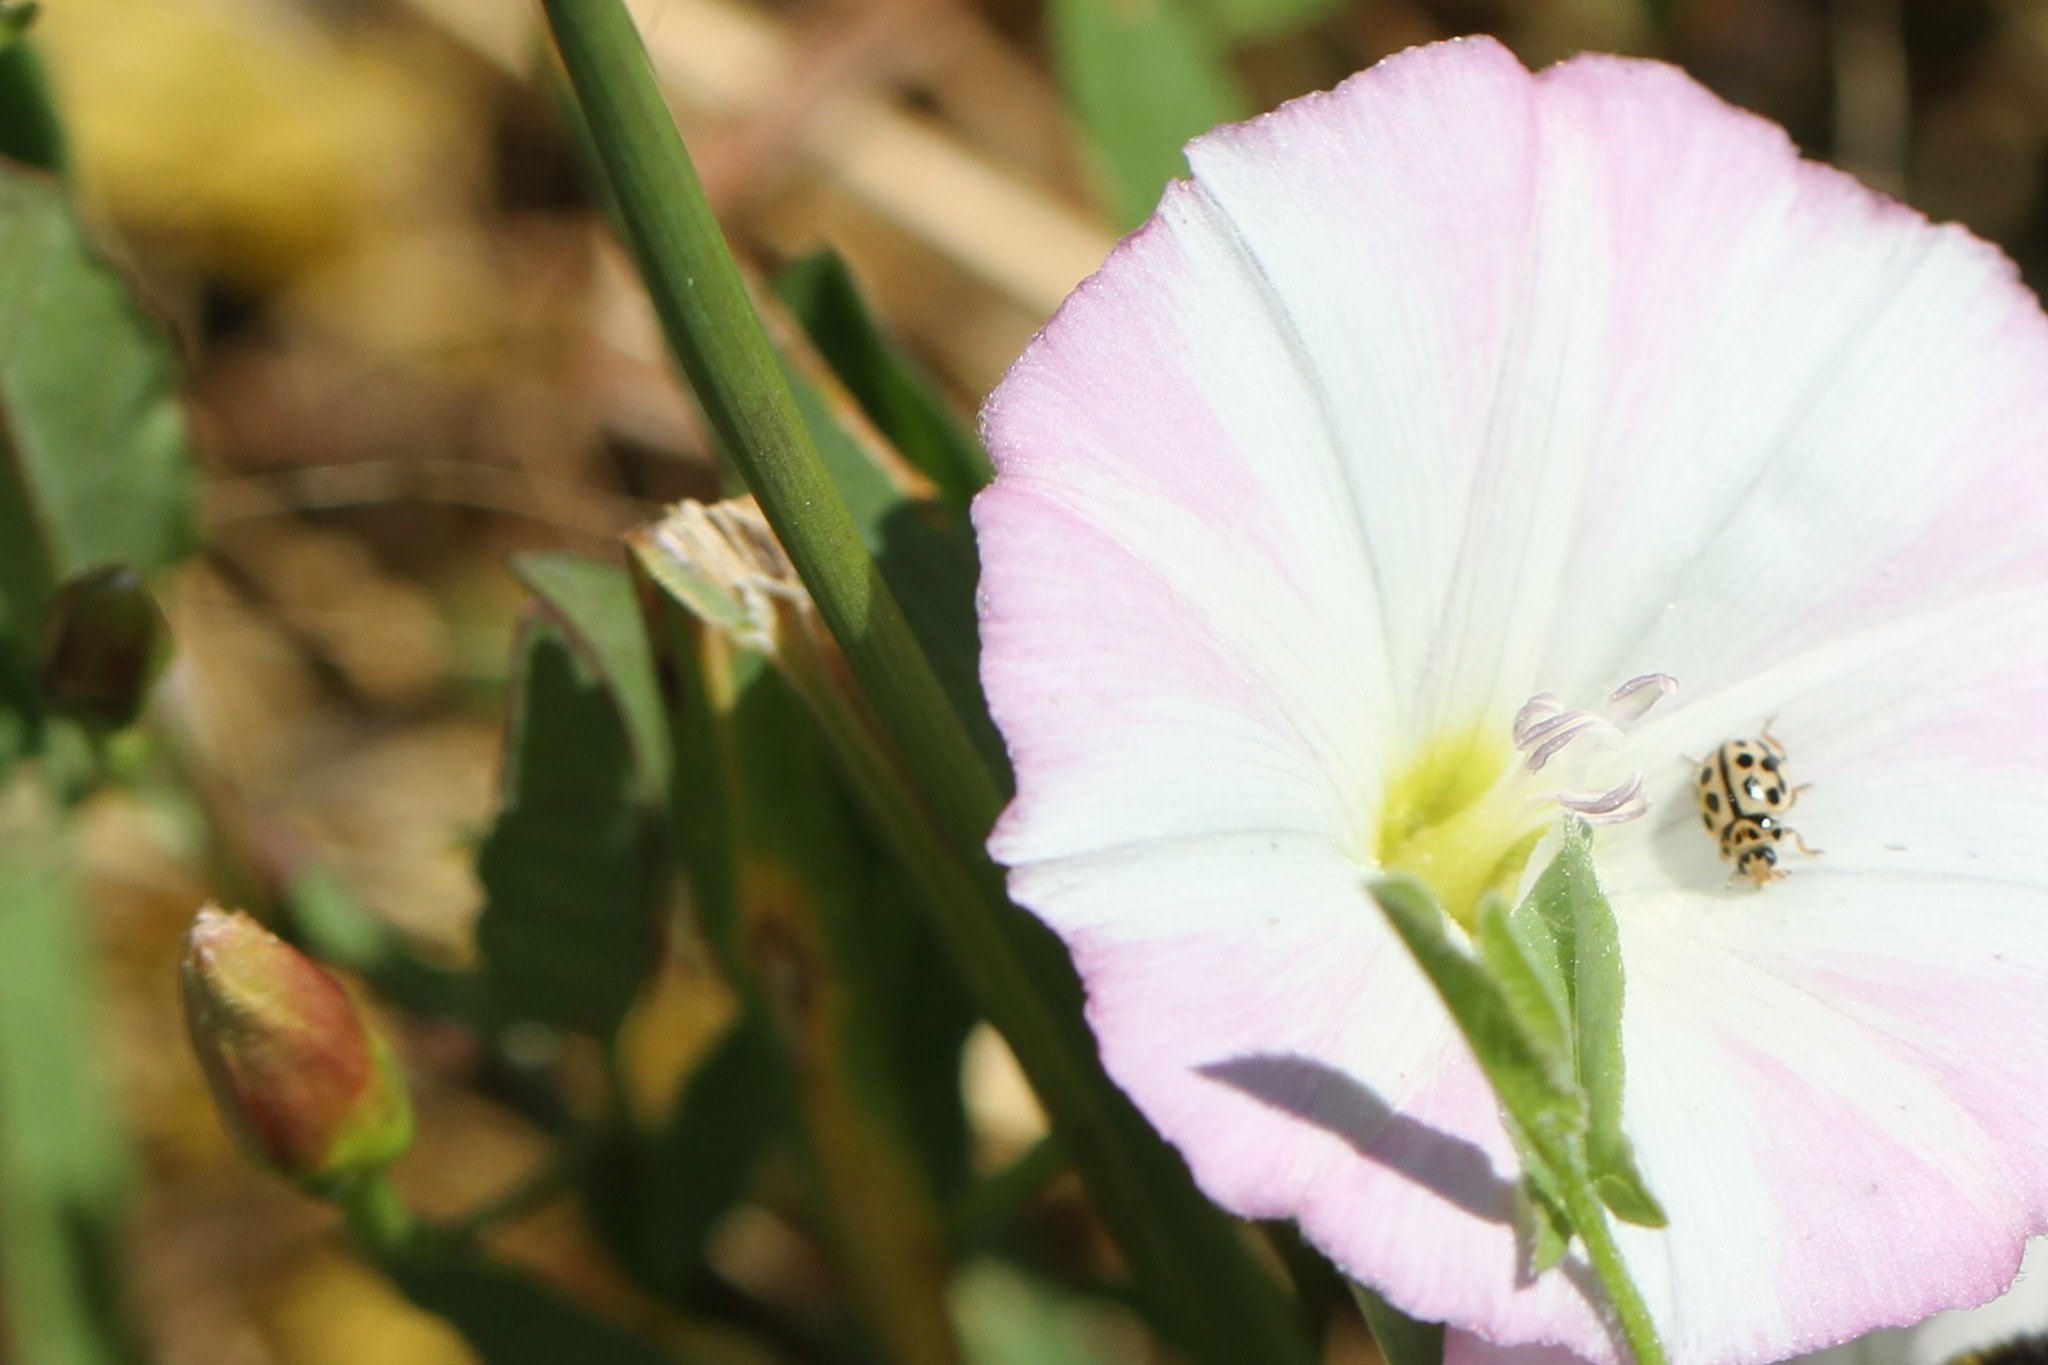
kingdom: Animalia
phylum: Arthropoda
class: Insecta
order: Coleoptera
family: Coccinellidae
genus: Tytthaspis
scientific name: Tytthaspis sedecimpunctata
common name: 16-spot ladybird
